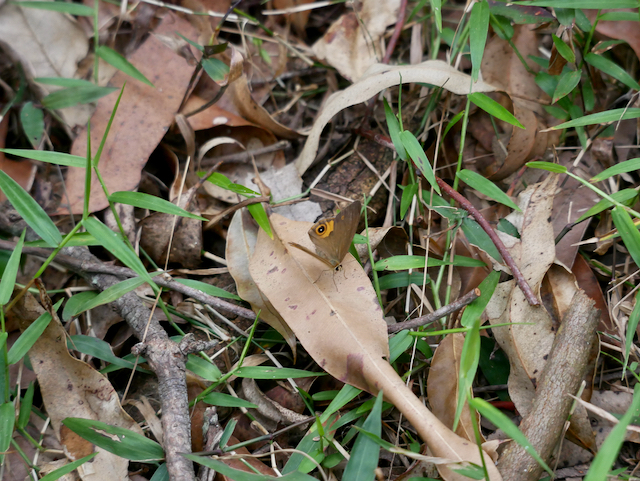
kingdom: Animalia
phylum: Arthropoda
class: Insecta
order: Lepidoptera
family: Nymphalidae
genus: Hypocysta
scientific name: Hypocysta metirius
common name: Brown ringlet
